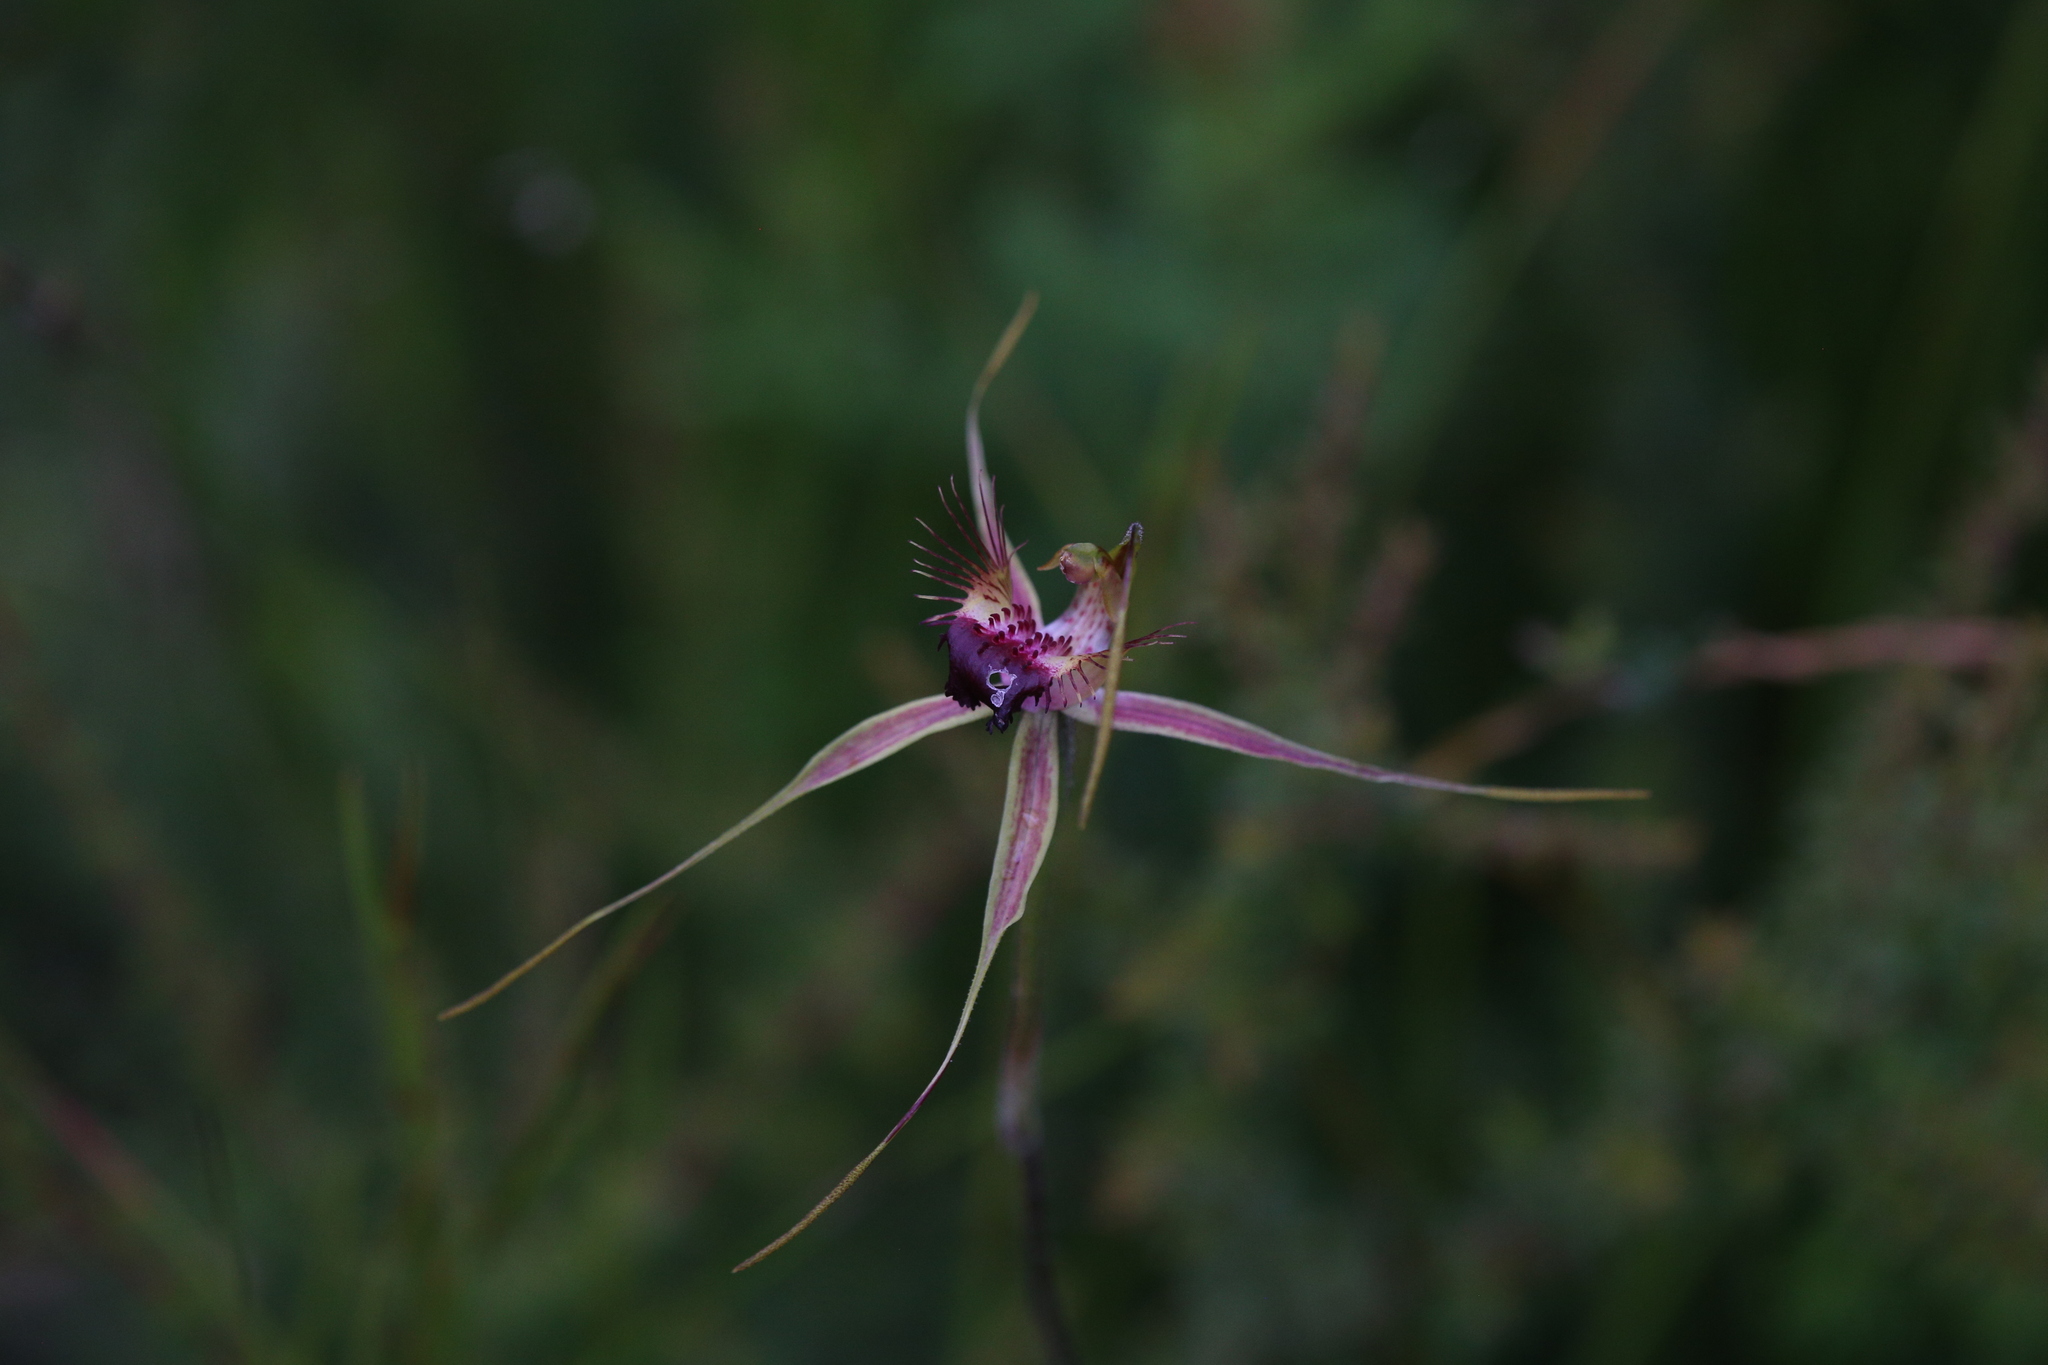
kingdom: Plantae
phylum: Tracheophyta
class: Liliopsida
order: Asparagales
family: Orchidaceae
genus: Caladenia
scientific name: Caladenia brownii
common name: Kari spider orchid
